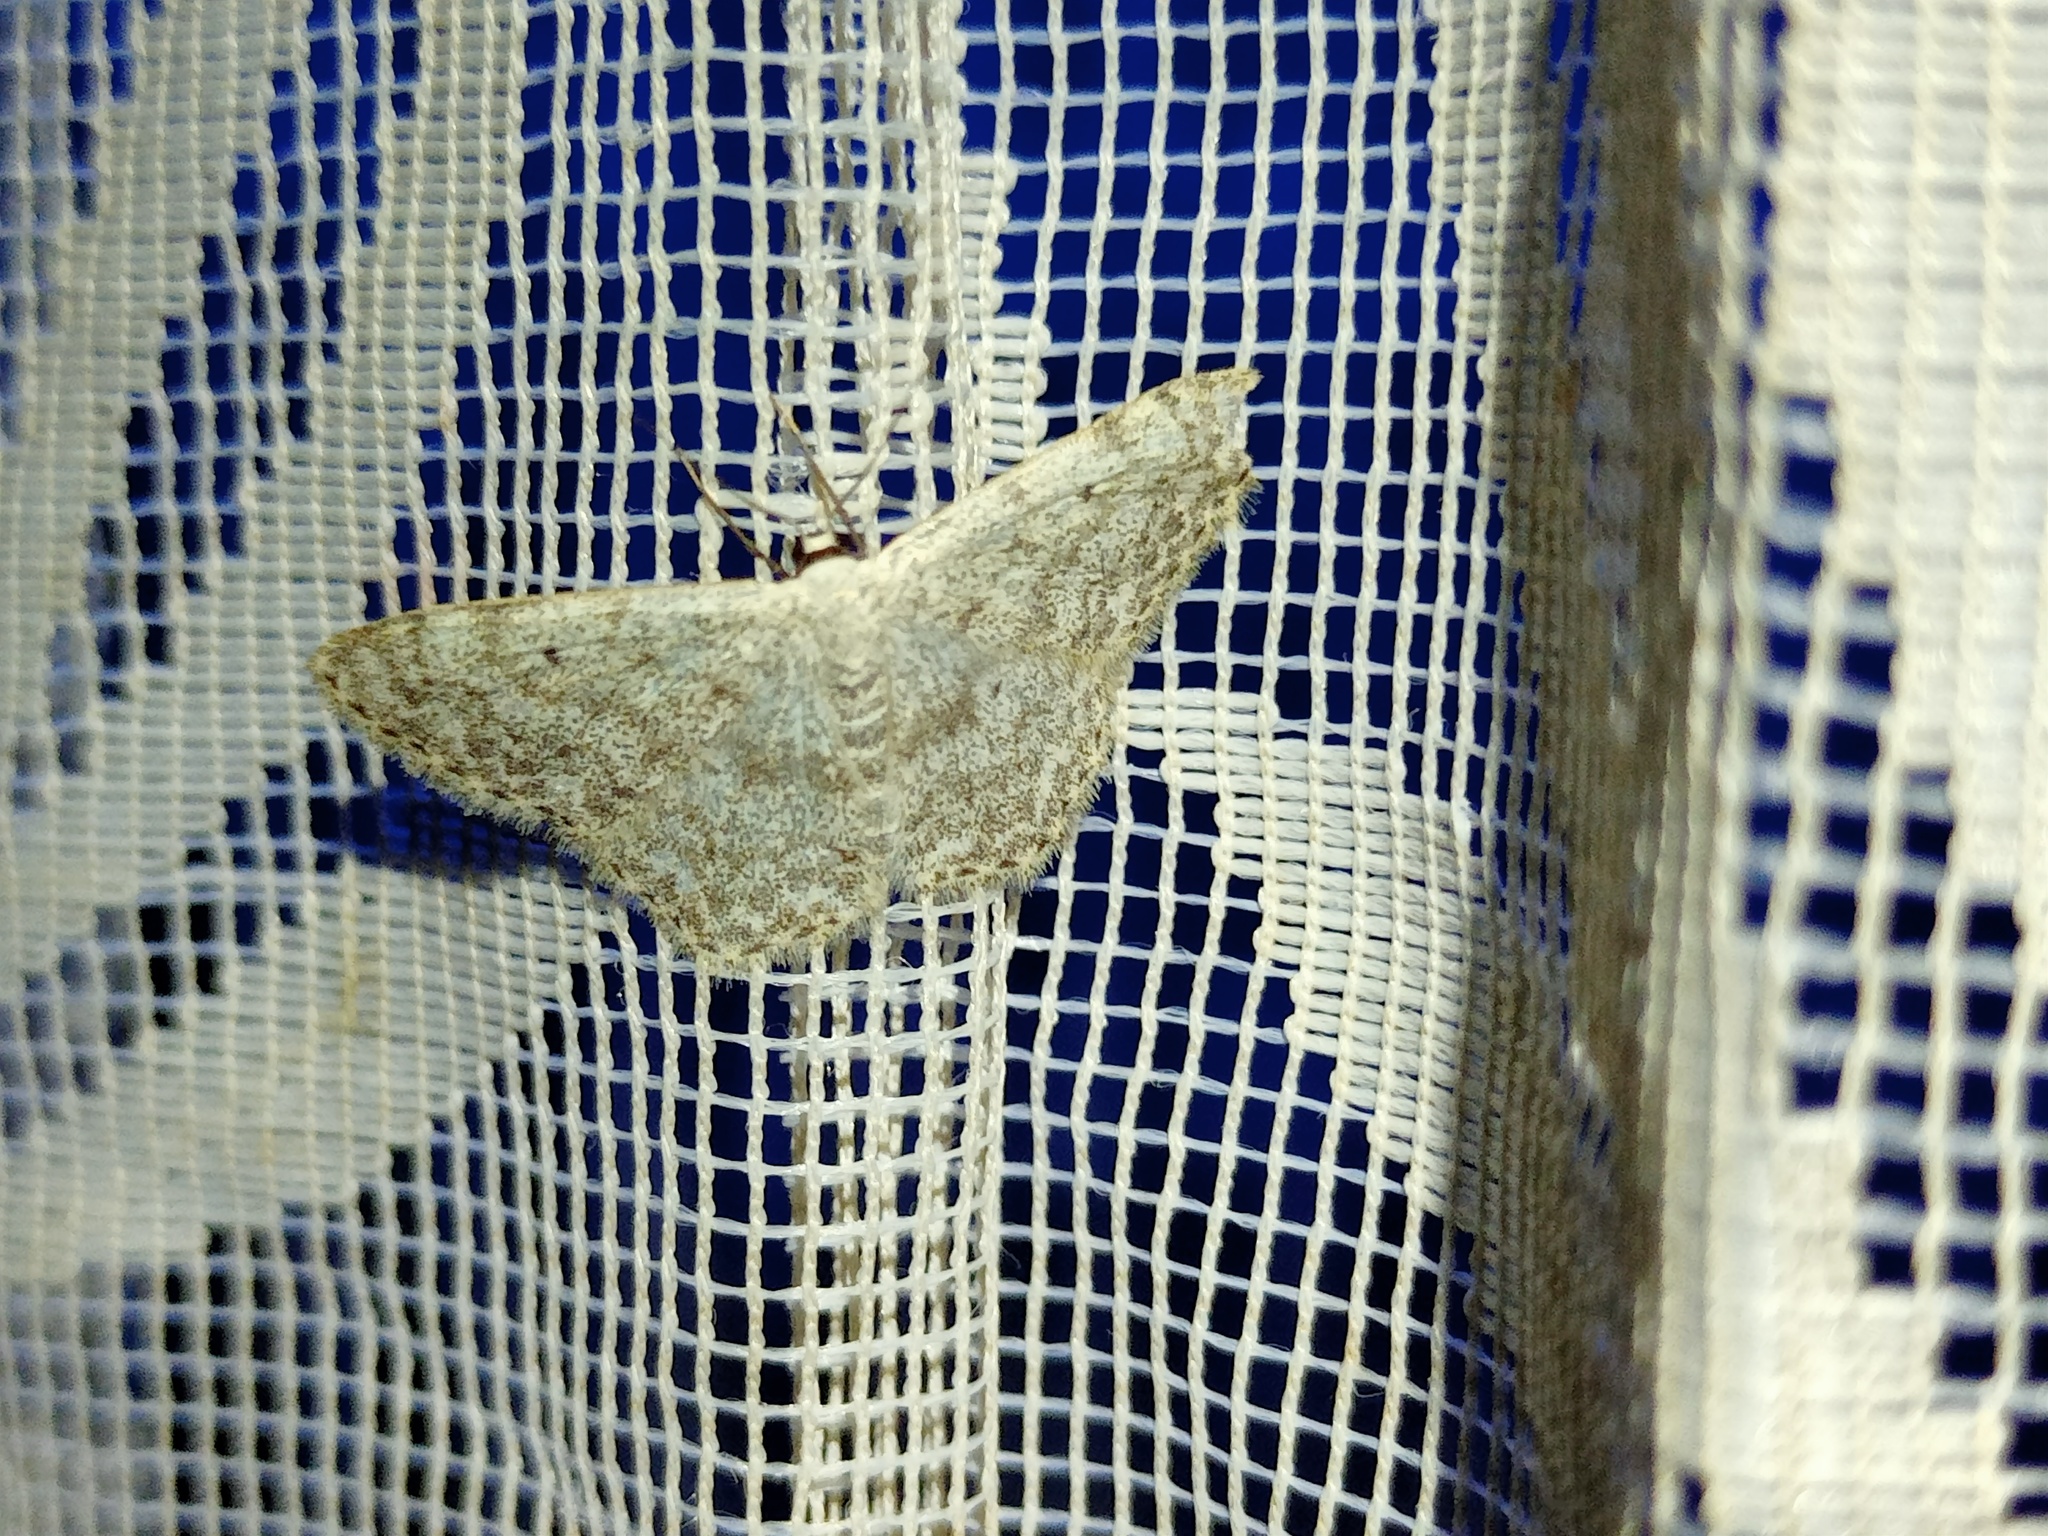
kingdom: Animalia
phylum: Arthropoda
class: Insecta
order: Lepidoptera
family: Geometridae
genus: Scopula
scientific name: Scopula marginepunctata
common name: Mullein wave
